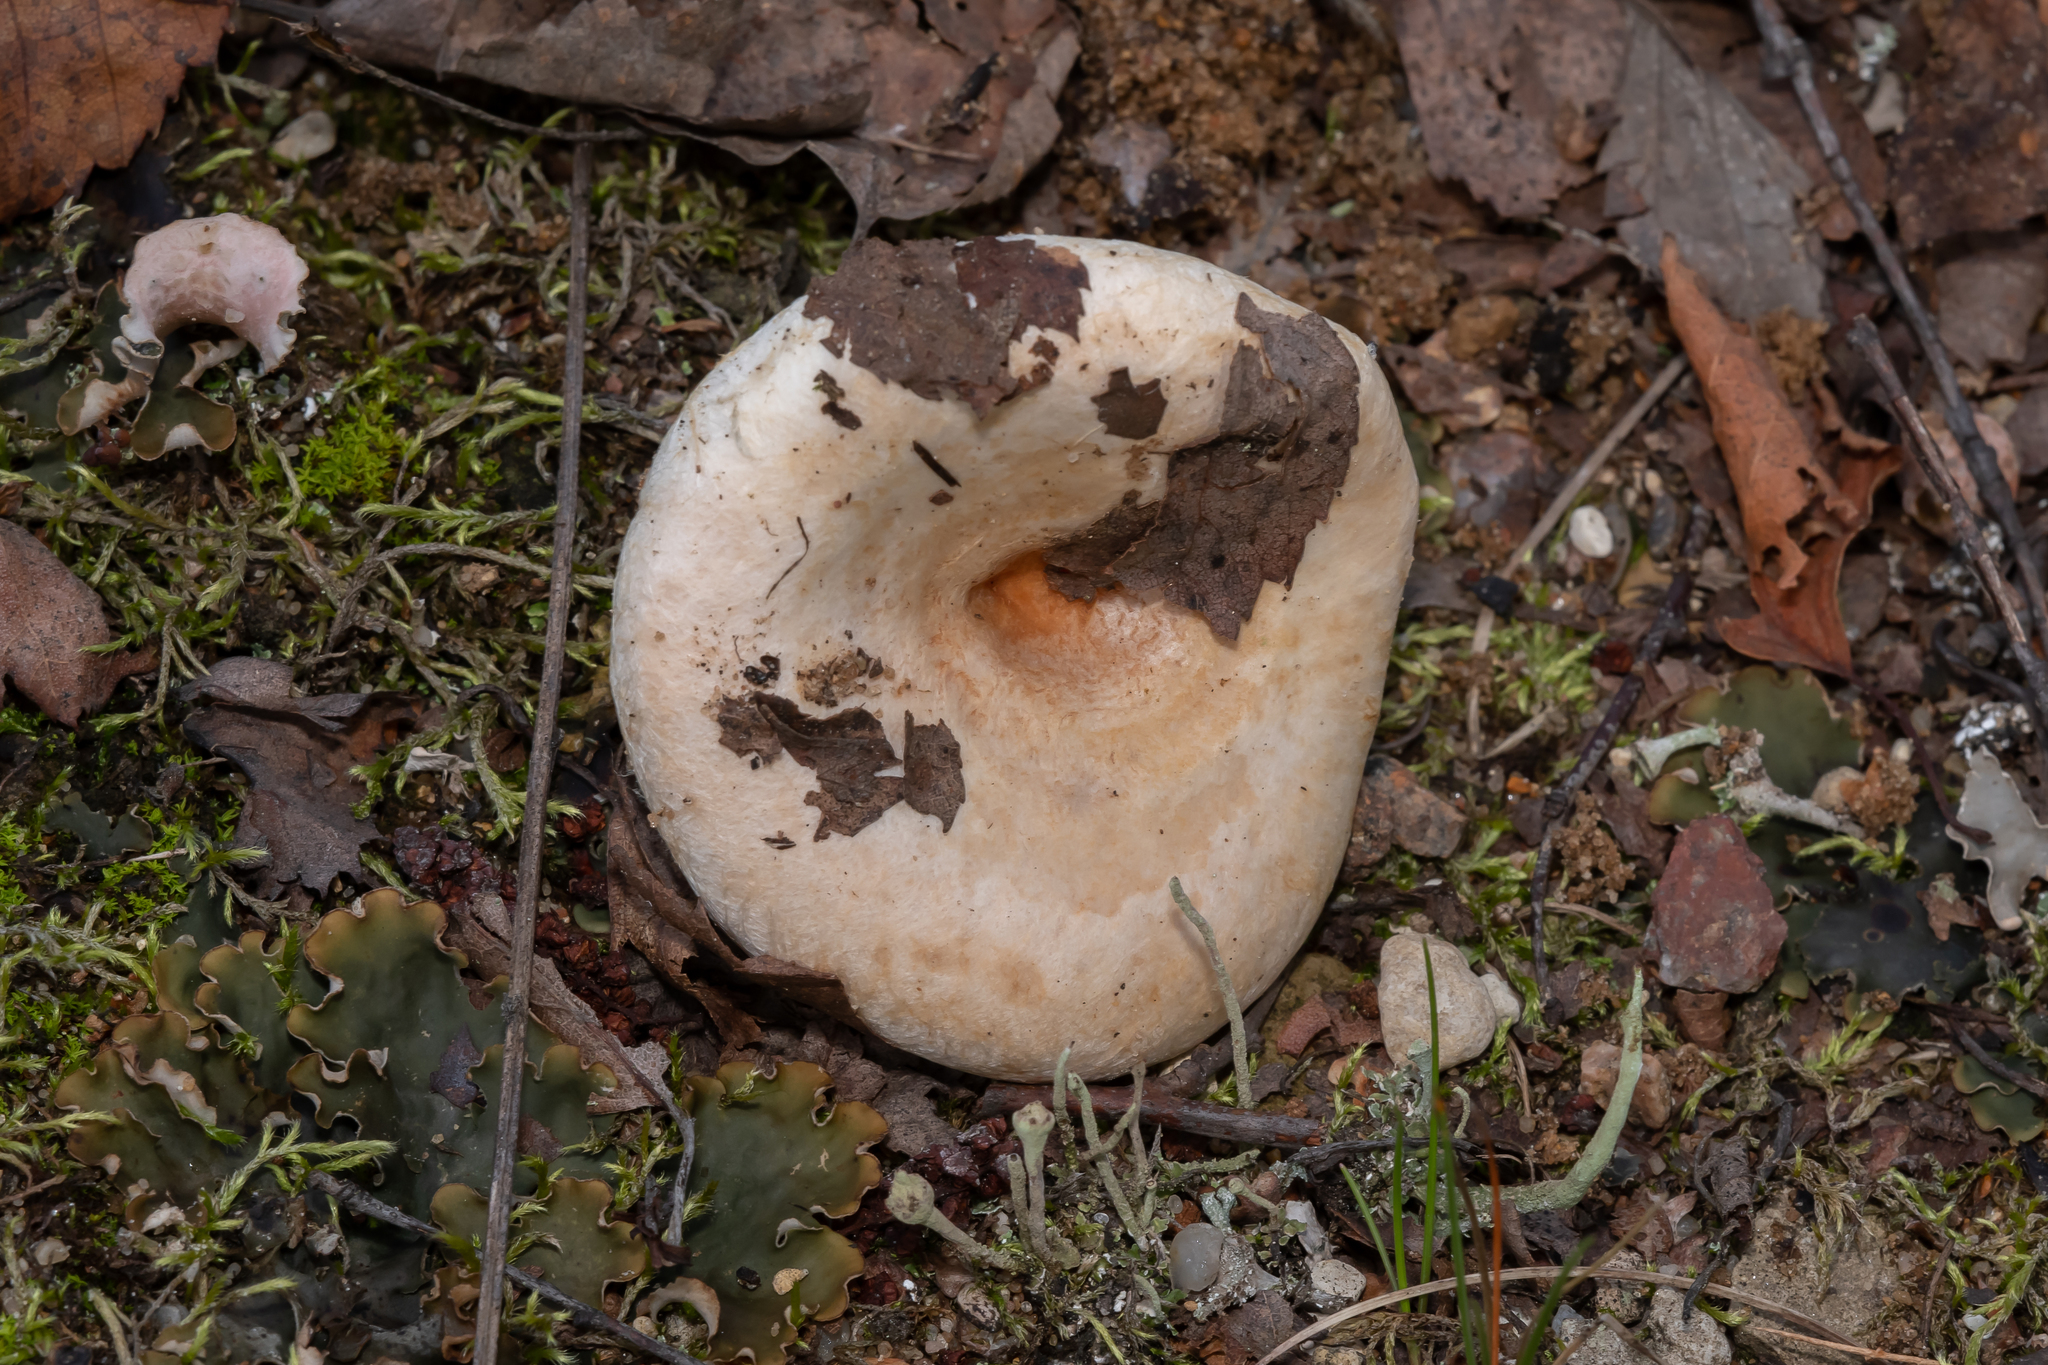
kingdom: Fungi
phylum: Basidiomycota
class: Agaricomycetes
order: Russulales
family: Russulaceae
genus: Lactarius
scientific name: Lactarius pubescens
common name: Bearded milkcap
